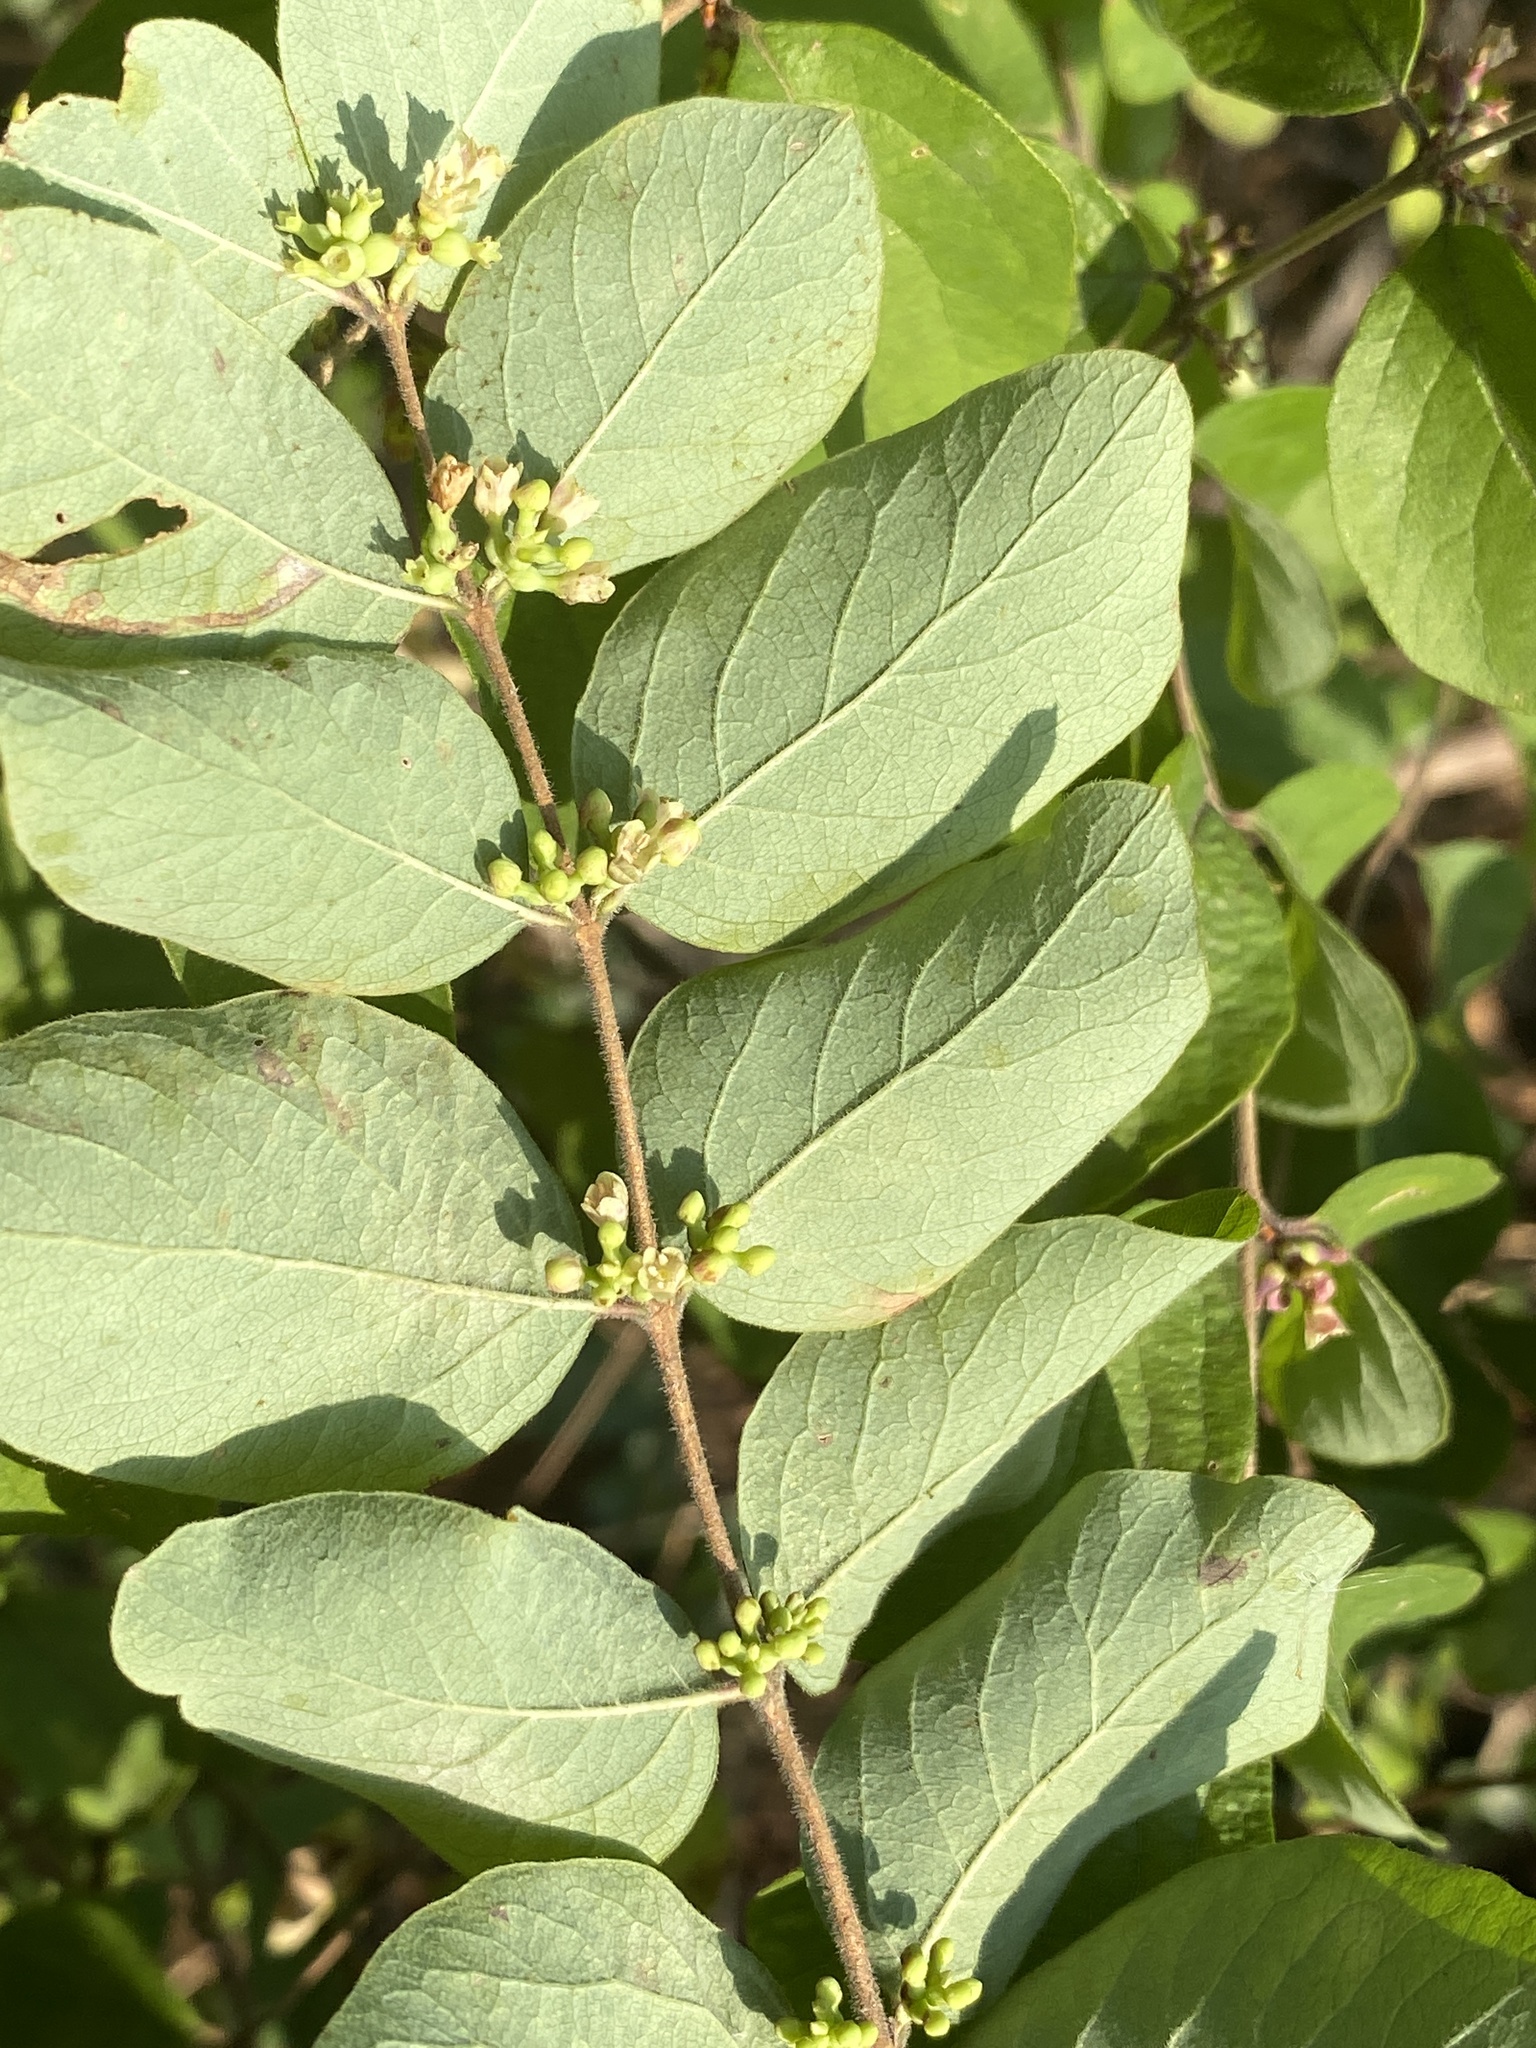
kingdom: Plantae
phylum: Tracheophyta
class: Magnoliopsida
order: Dipsacales
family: Caprifoliaceae
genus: Symphoricarpos
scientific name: Symphoricarpos orbiculatus
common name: Coralberry
